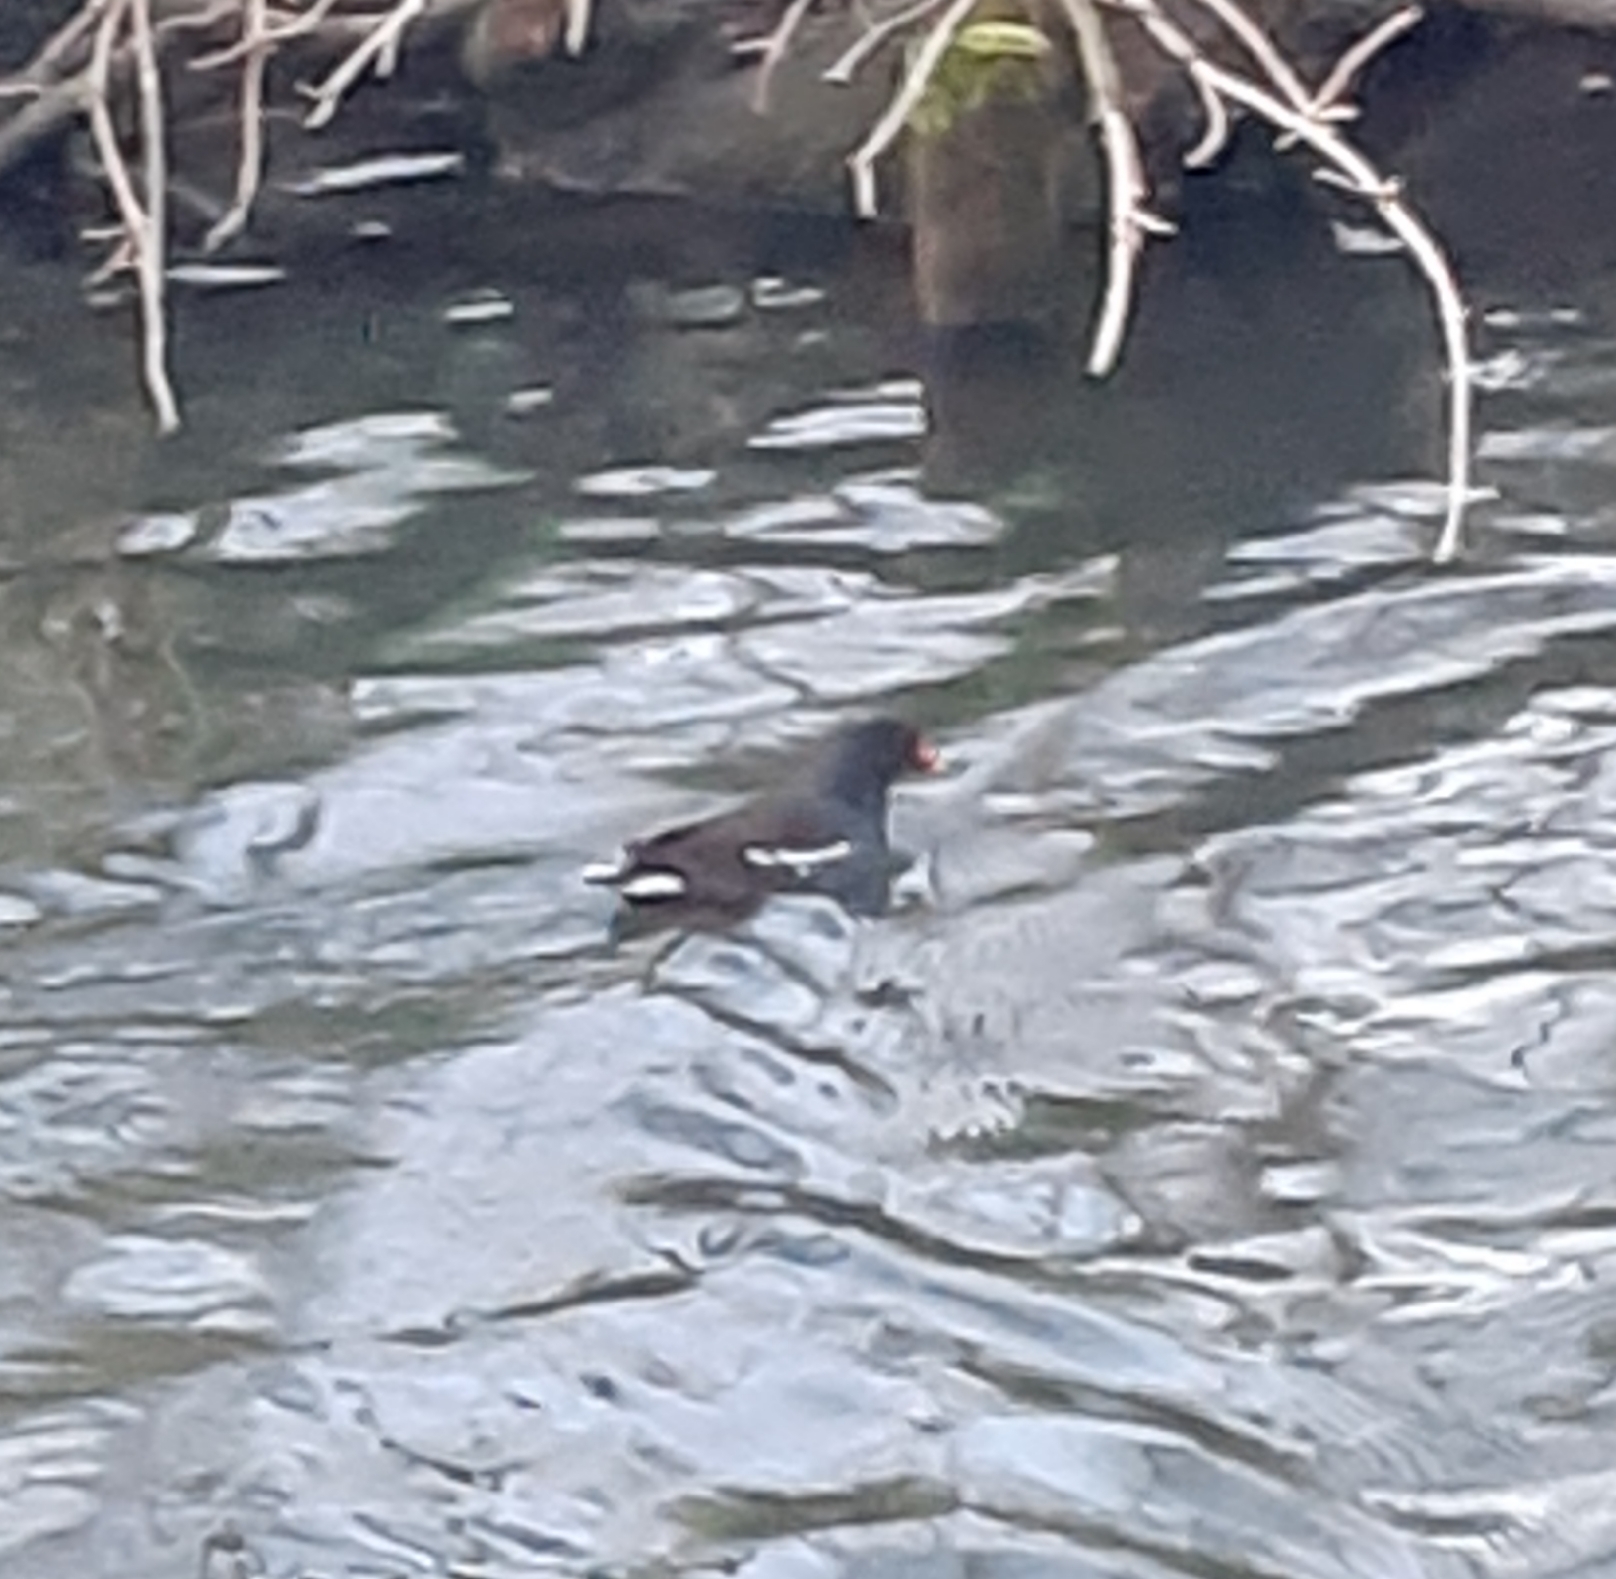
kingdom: Animalia
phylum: Chordata
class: Aves
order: Gruiformes
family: Rallidae
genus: Gallinula
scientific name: Gallinula chloropus
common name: Common moorhen
